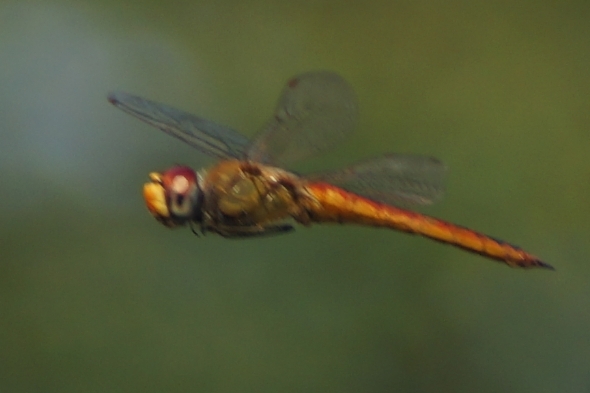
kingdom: Animalia
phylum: Arthropoda
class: Insecta
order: Odonata
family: Libellulidae
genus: Pantala
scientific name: Pantala flavescens
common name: Wandering glider
